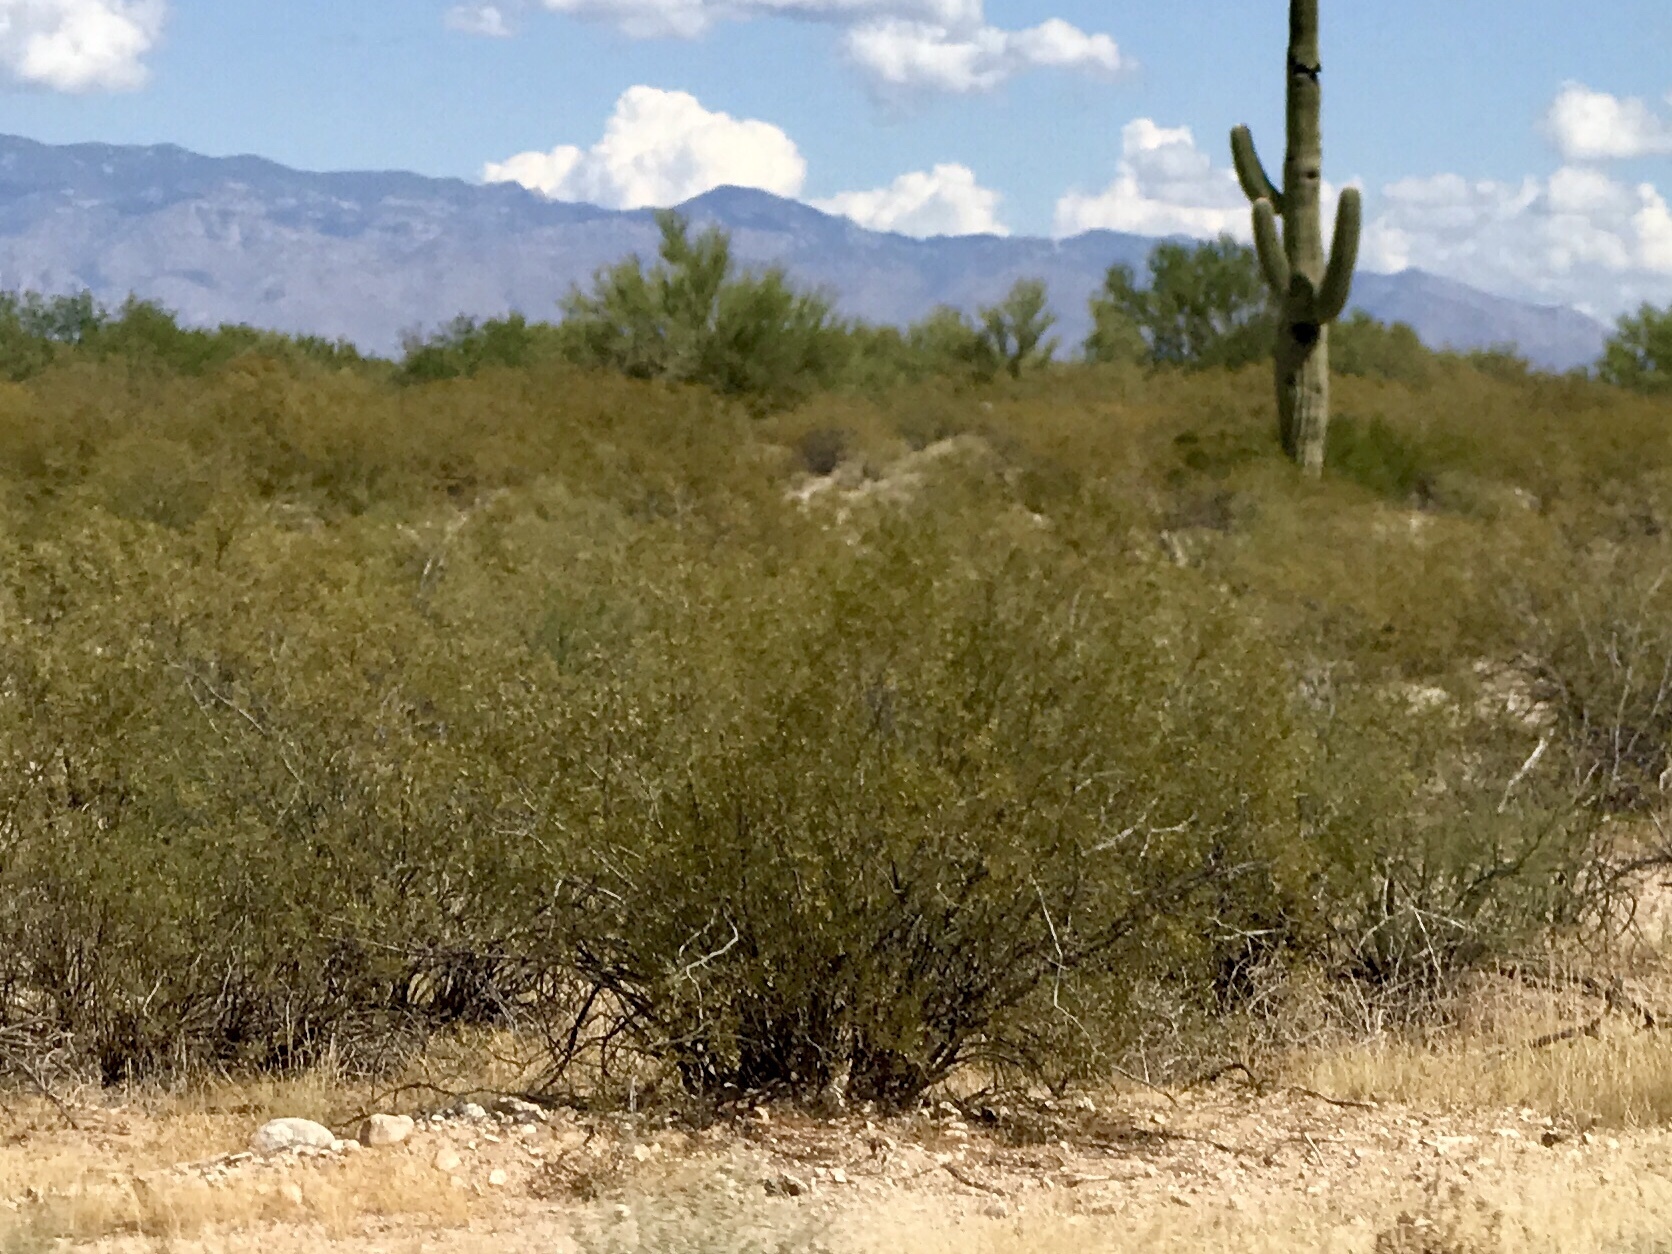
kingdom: Plantae
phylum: Tracheophyta
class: Magnoliopsida
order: Zygophyllales
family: Zygophyllaceae
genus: Larrea
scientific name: Larrea tridentata
